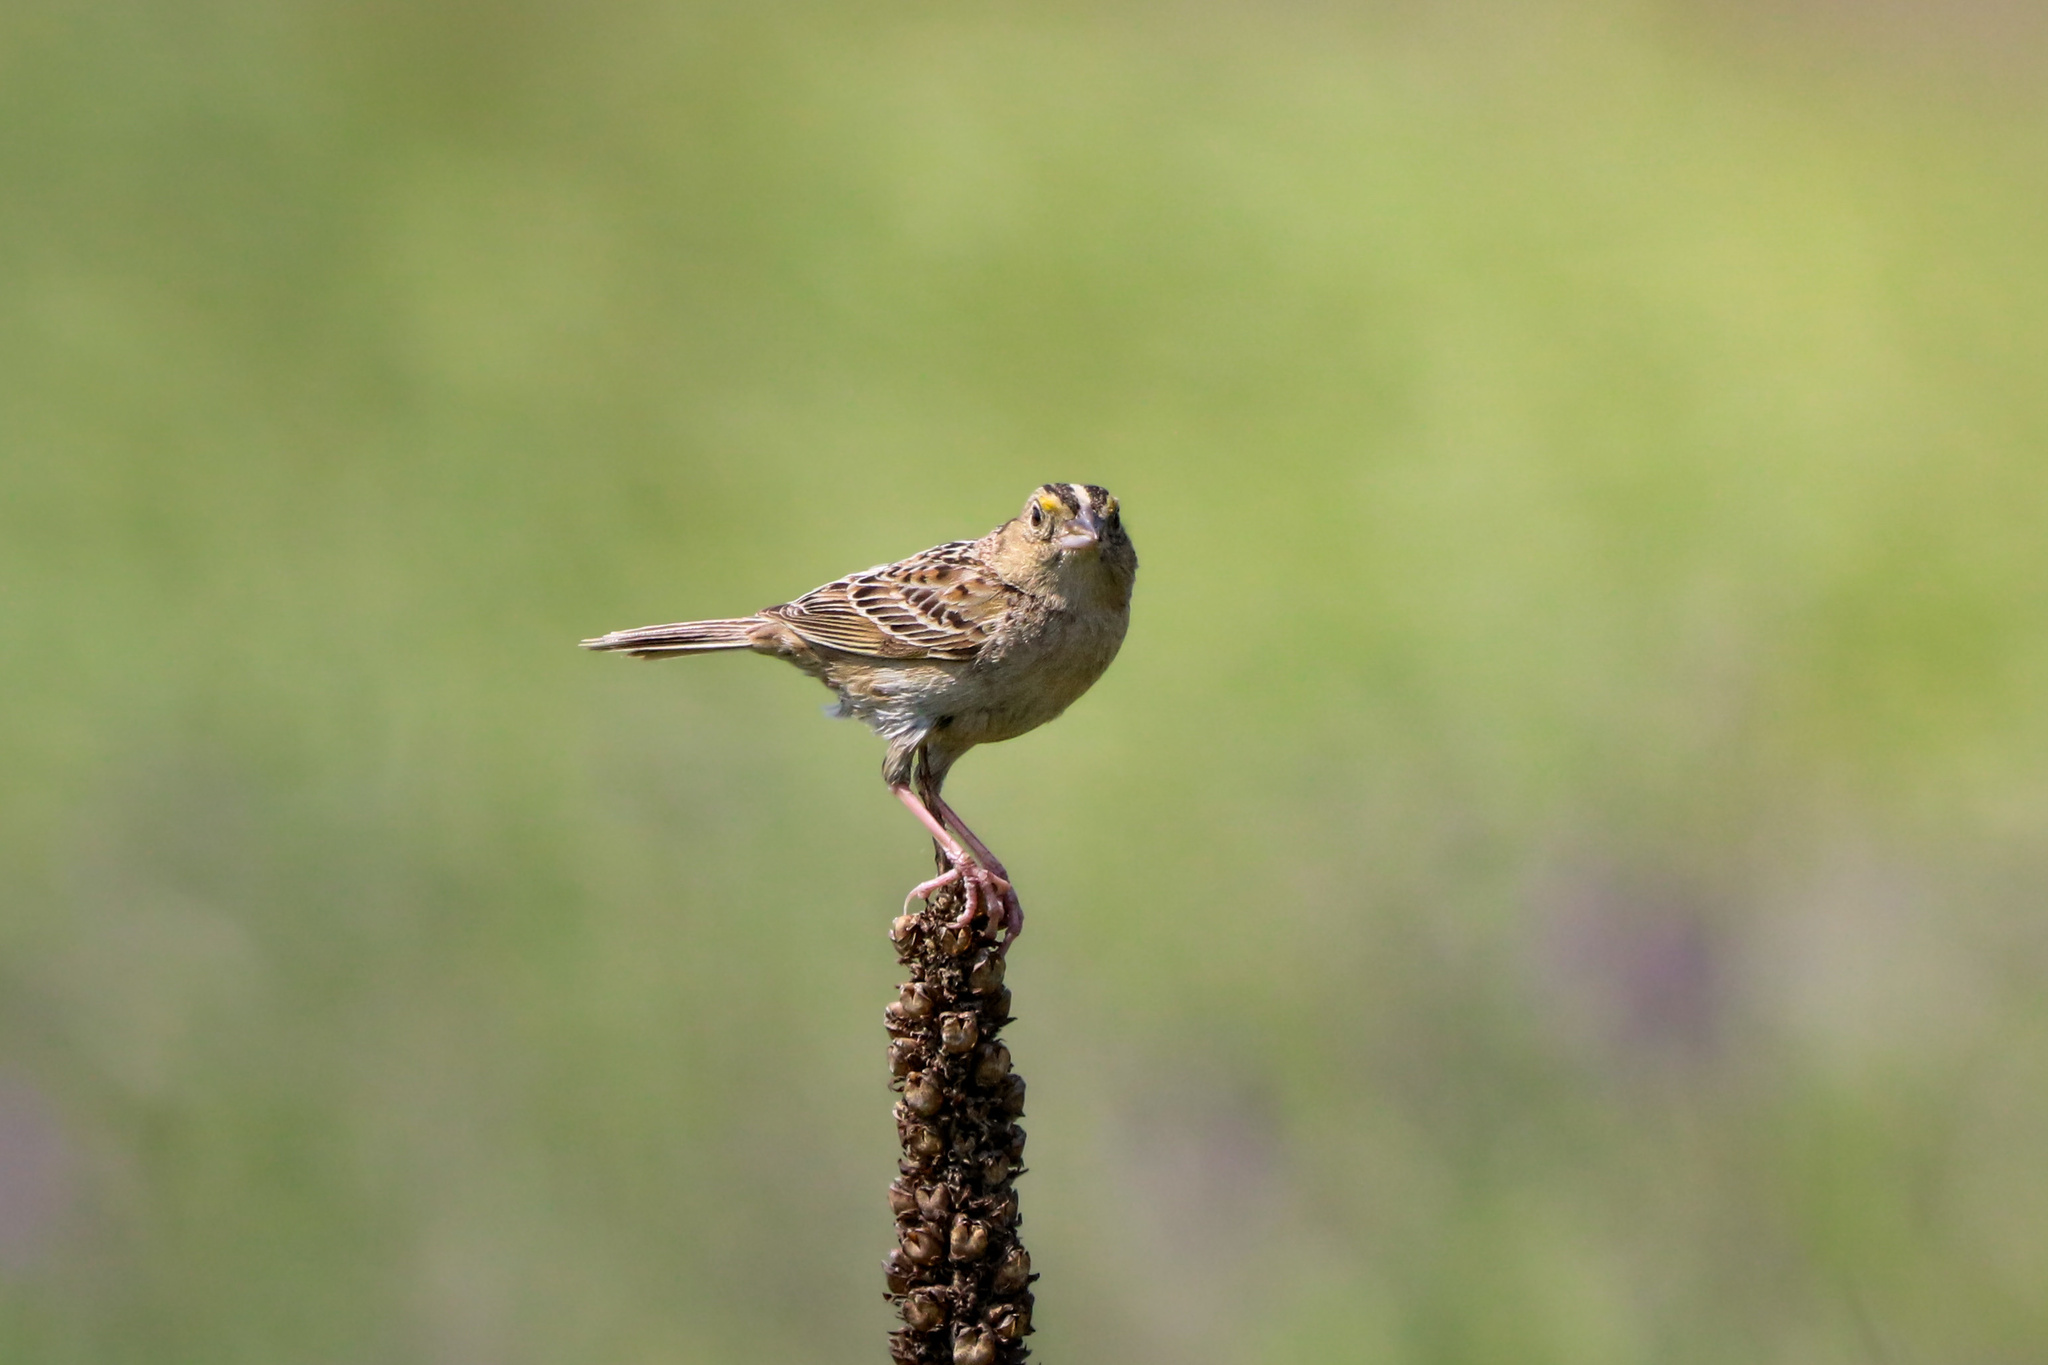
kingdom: Animalia
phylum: Chordata
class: Aves
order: Passeriformes
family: Passerellidae
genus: Ammodramus
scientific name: Ammodramus savannarum
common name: Grasshopper sparrow
